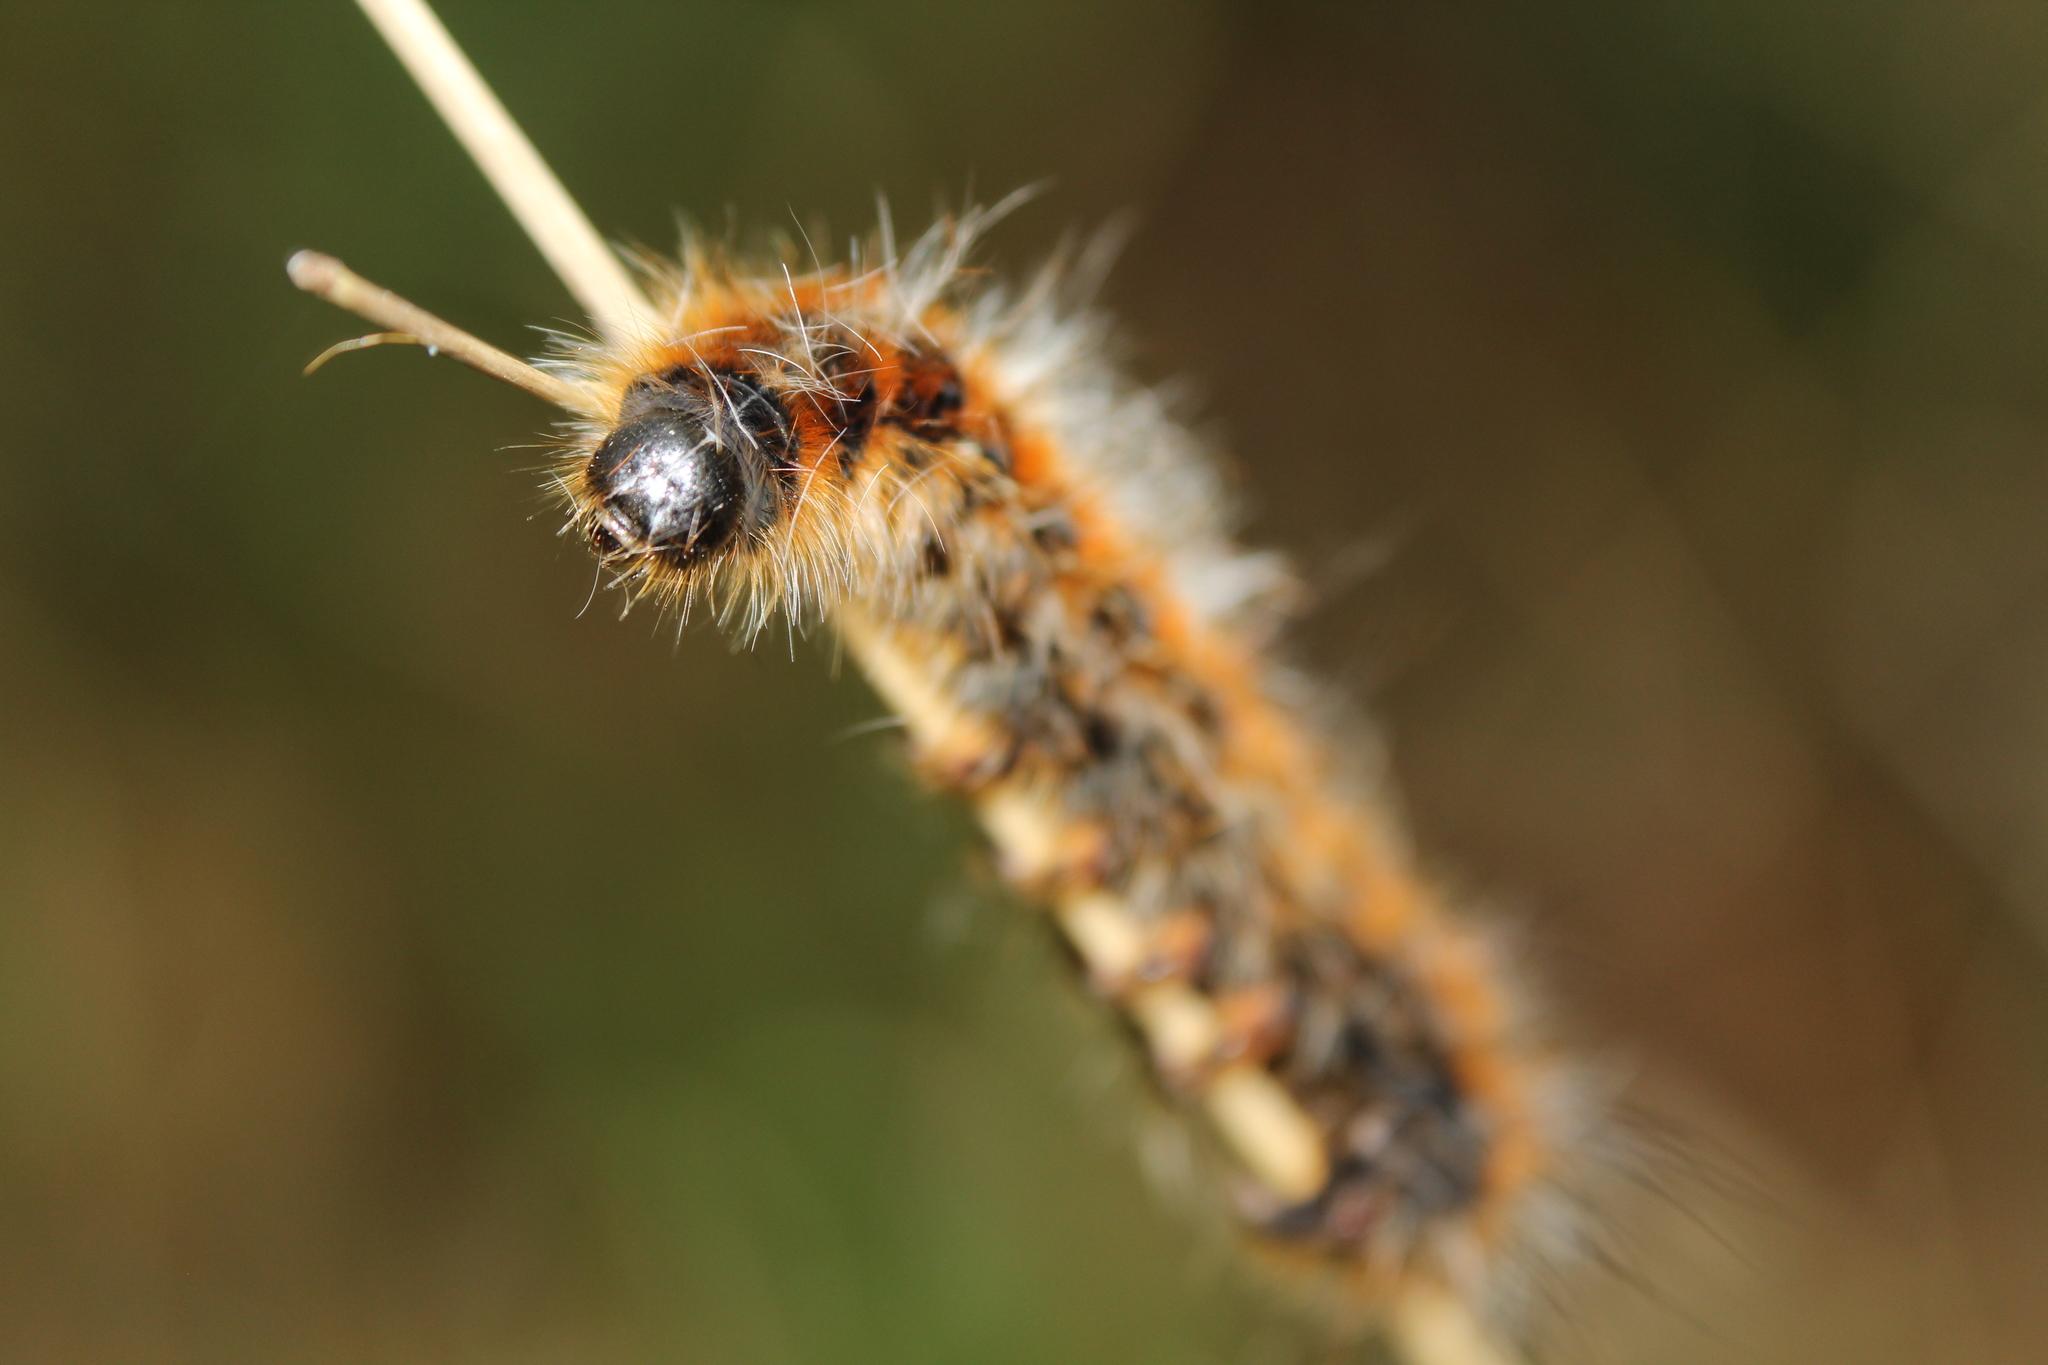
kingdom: Animalia
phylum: Arthropoda
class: Insecta
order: Lepidoptera
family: Notodontidae
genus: Thaumetopoea
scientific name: Thaumetopoea pityocampa
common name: Pine processionary
